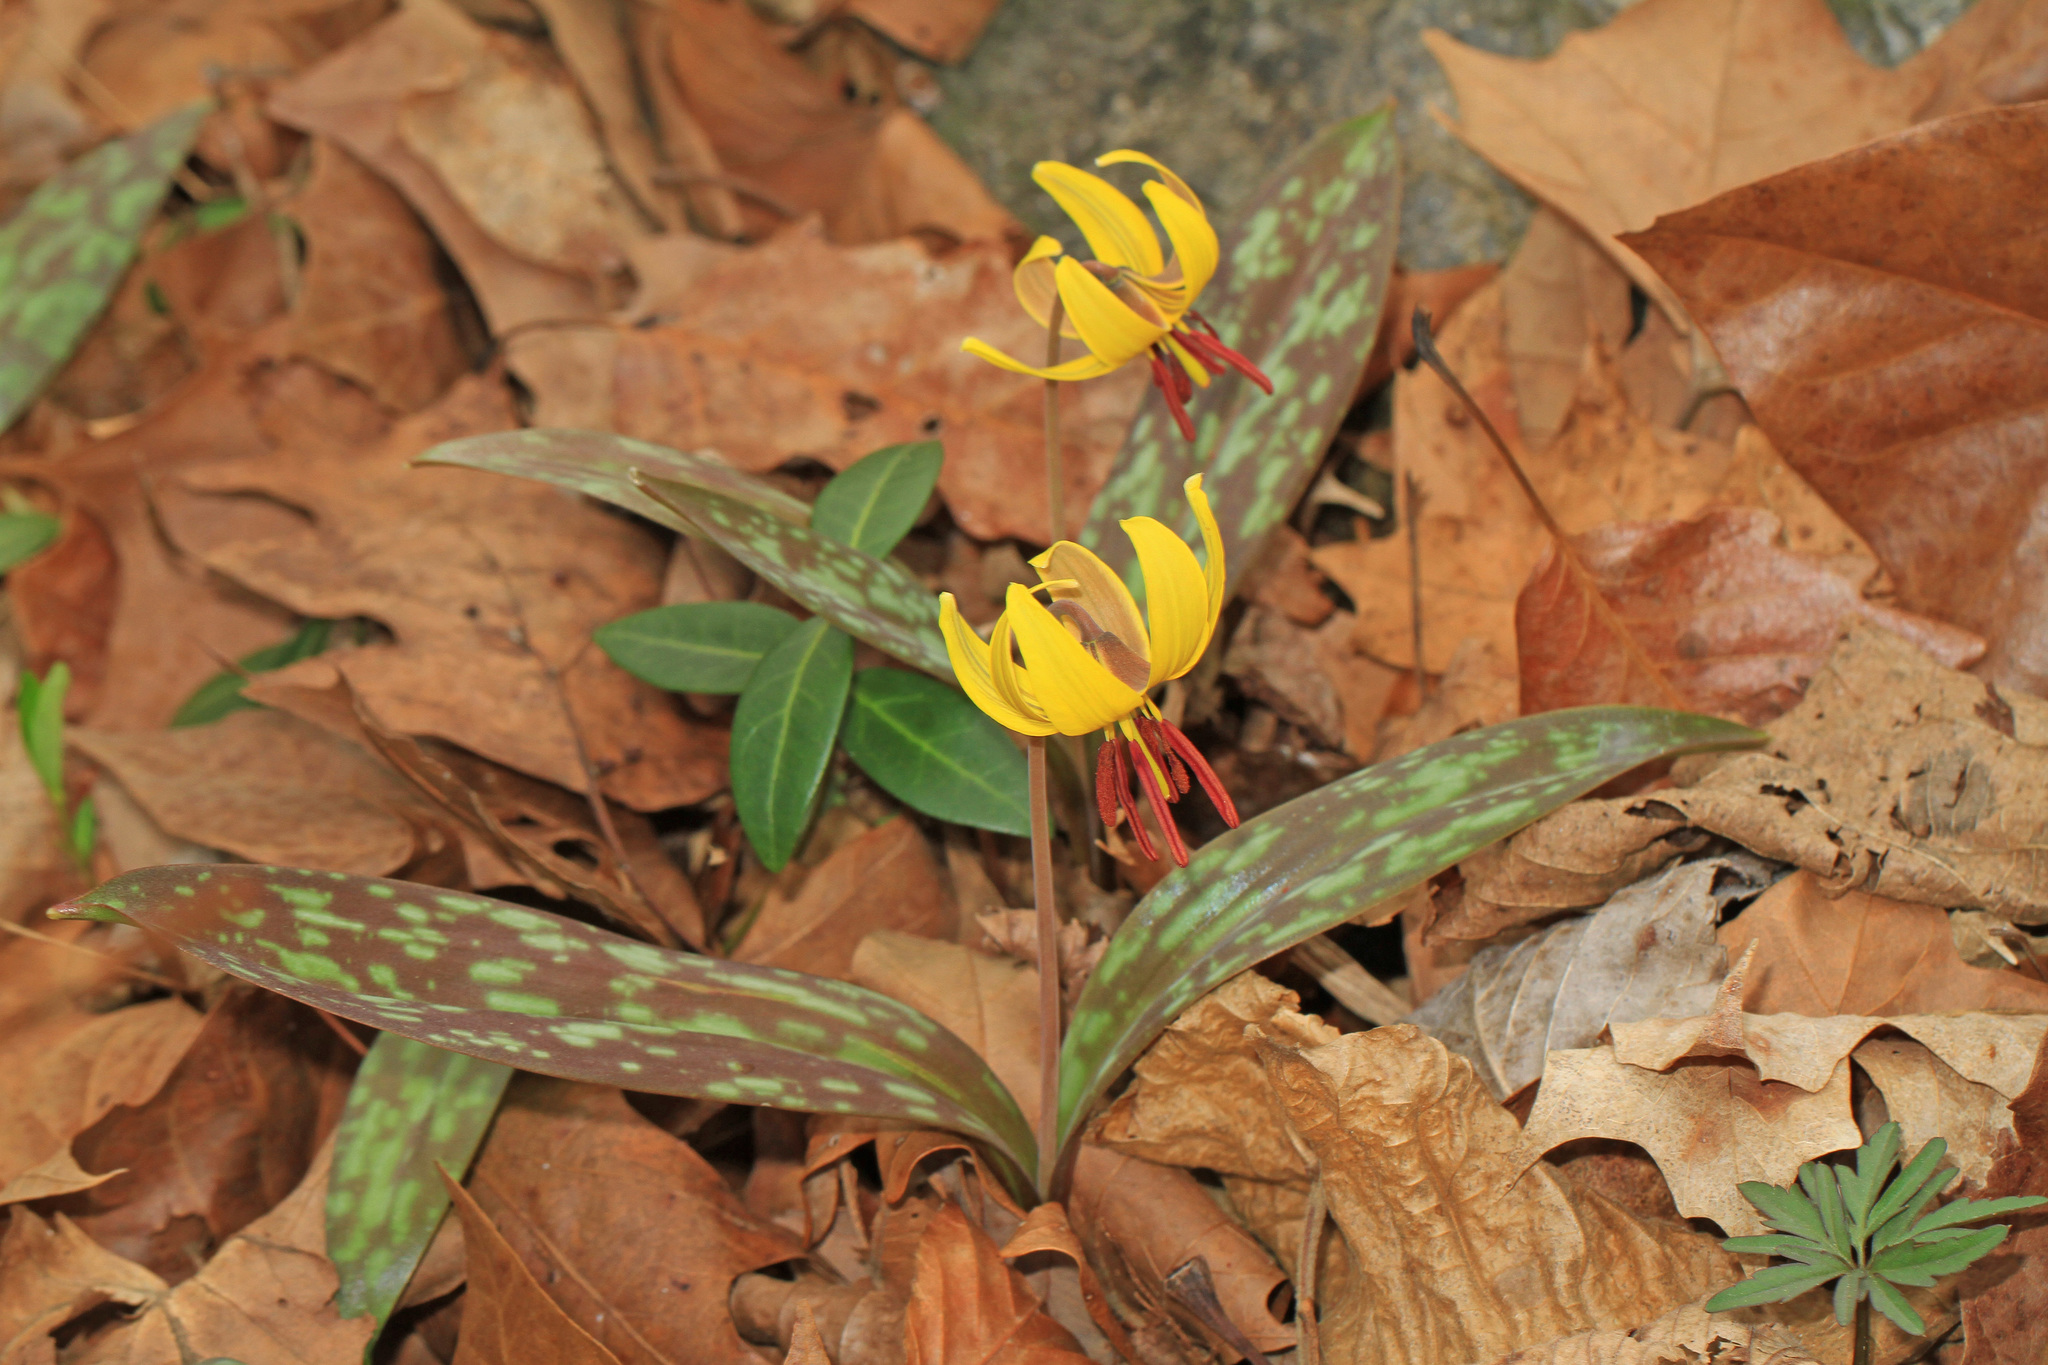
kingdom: Plantae
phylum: Tracheophyta
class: Liliopsida
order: Liliales
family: Liliaceae
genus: Erythronium
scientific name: Erythronium americanum
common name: Yellow adder's-tongue
